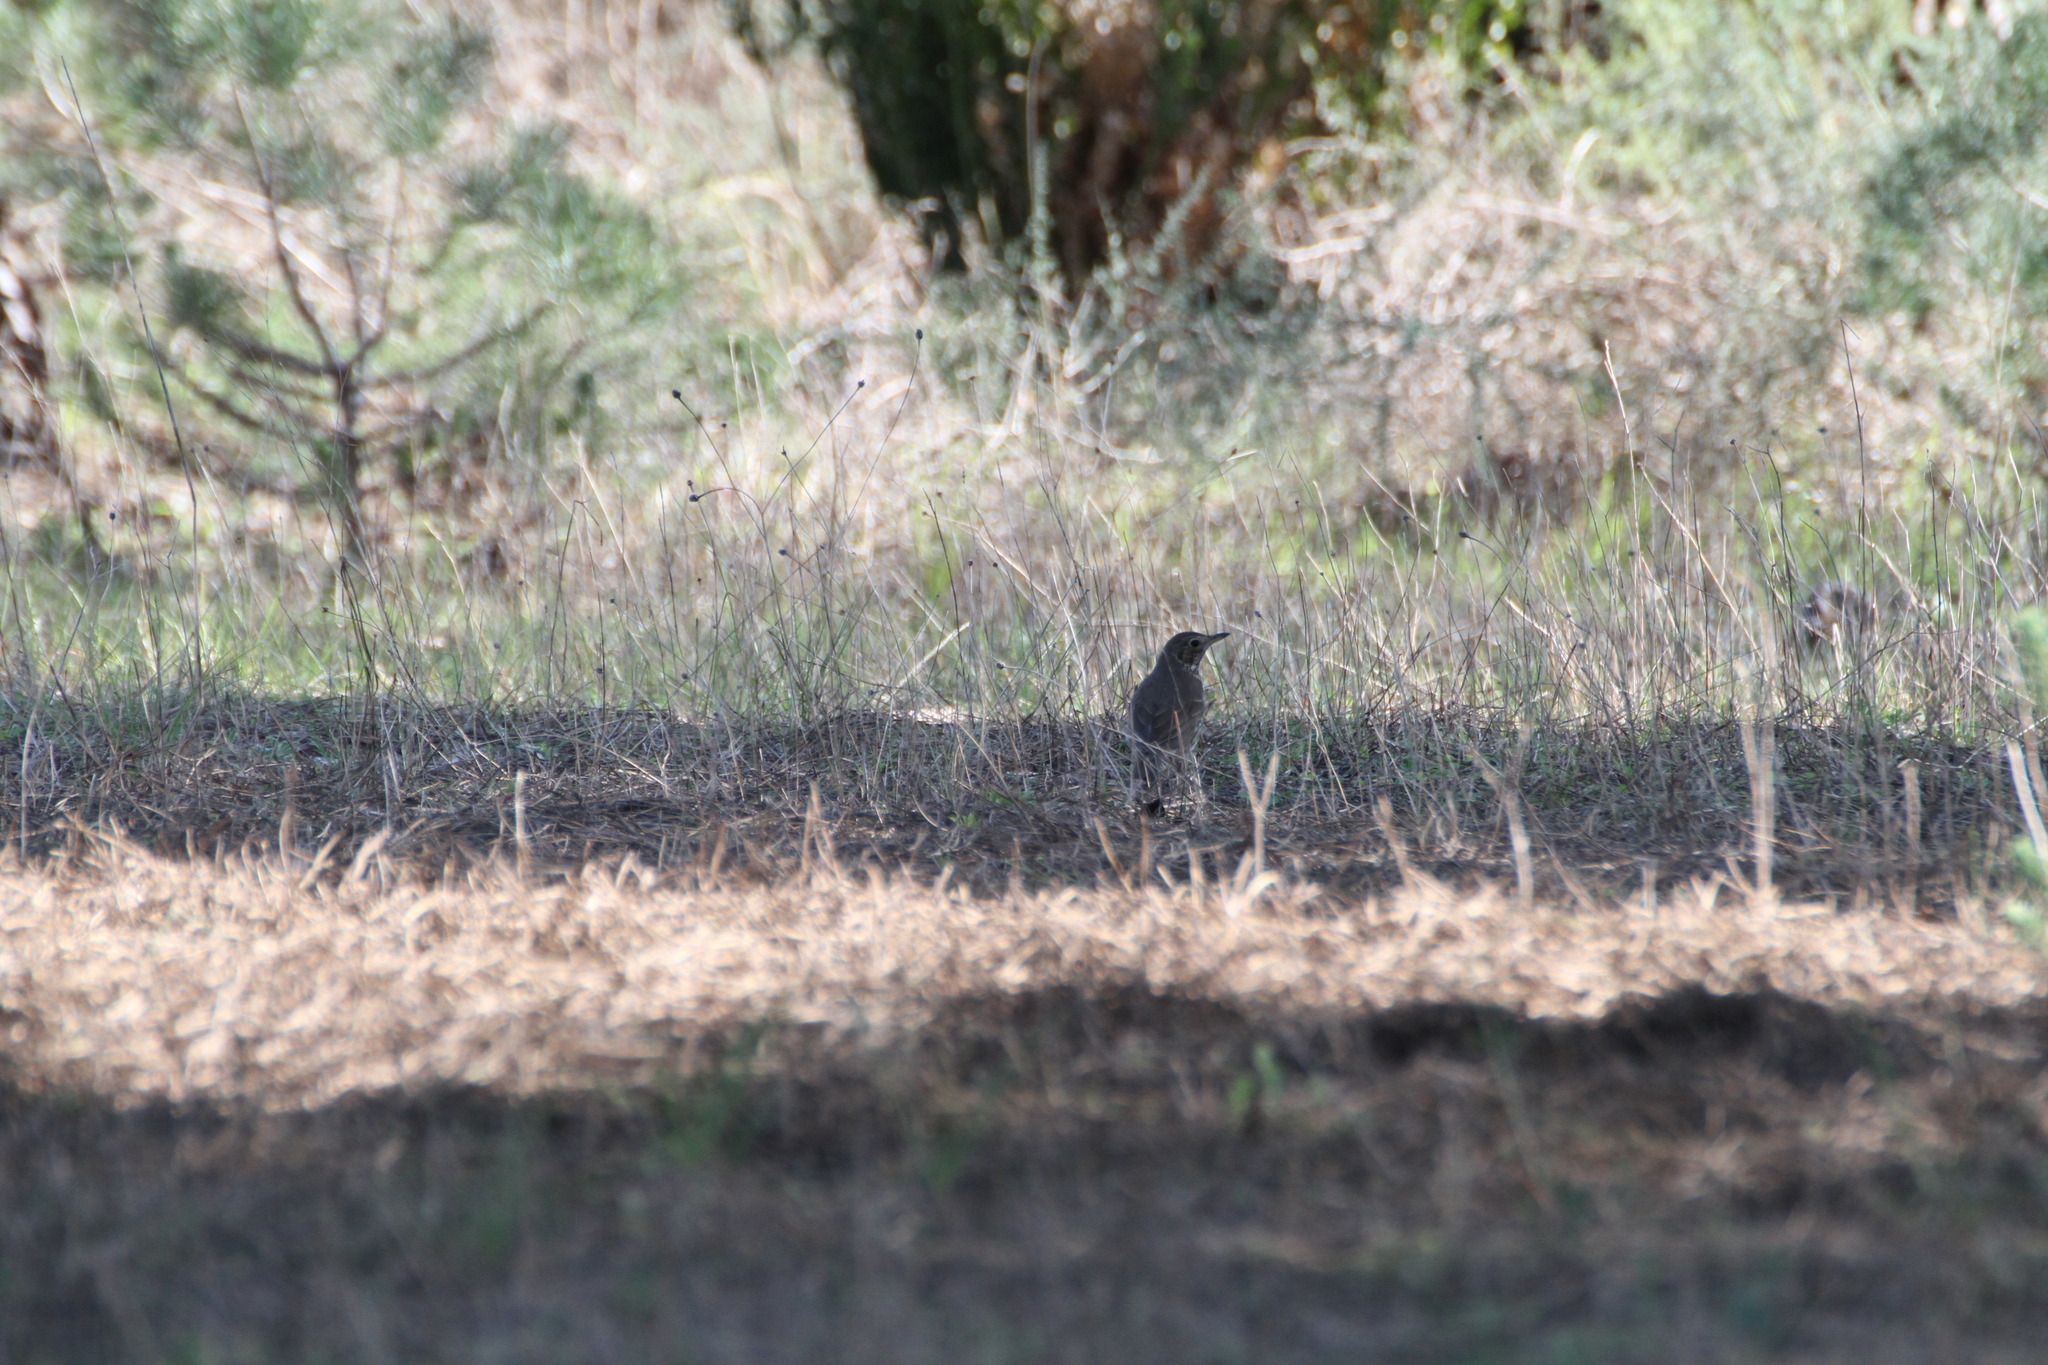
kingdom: Animalia
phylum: Chordata
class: Aves
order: Passeriformes
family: Turdidae
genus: Turdus
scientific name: Turdus philomelos
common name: Song thrush
